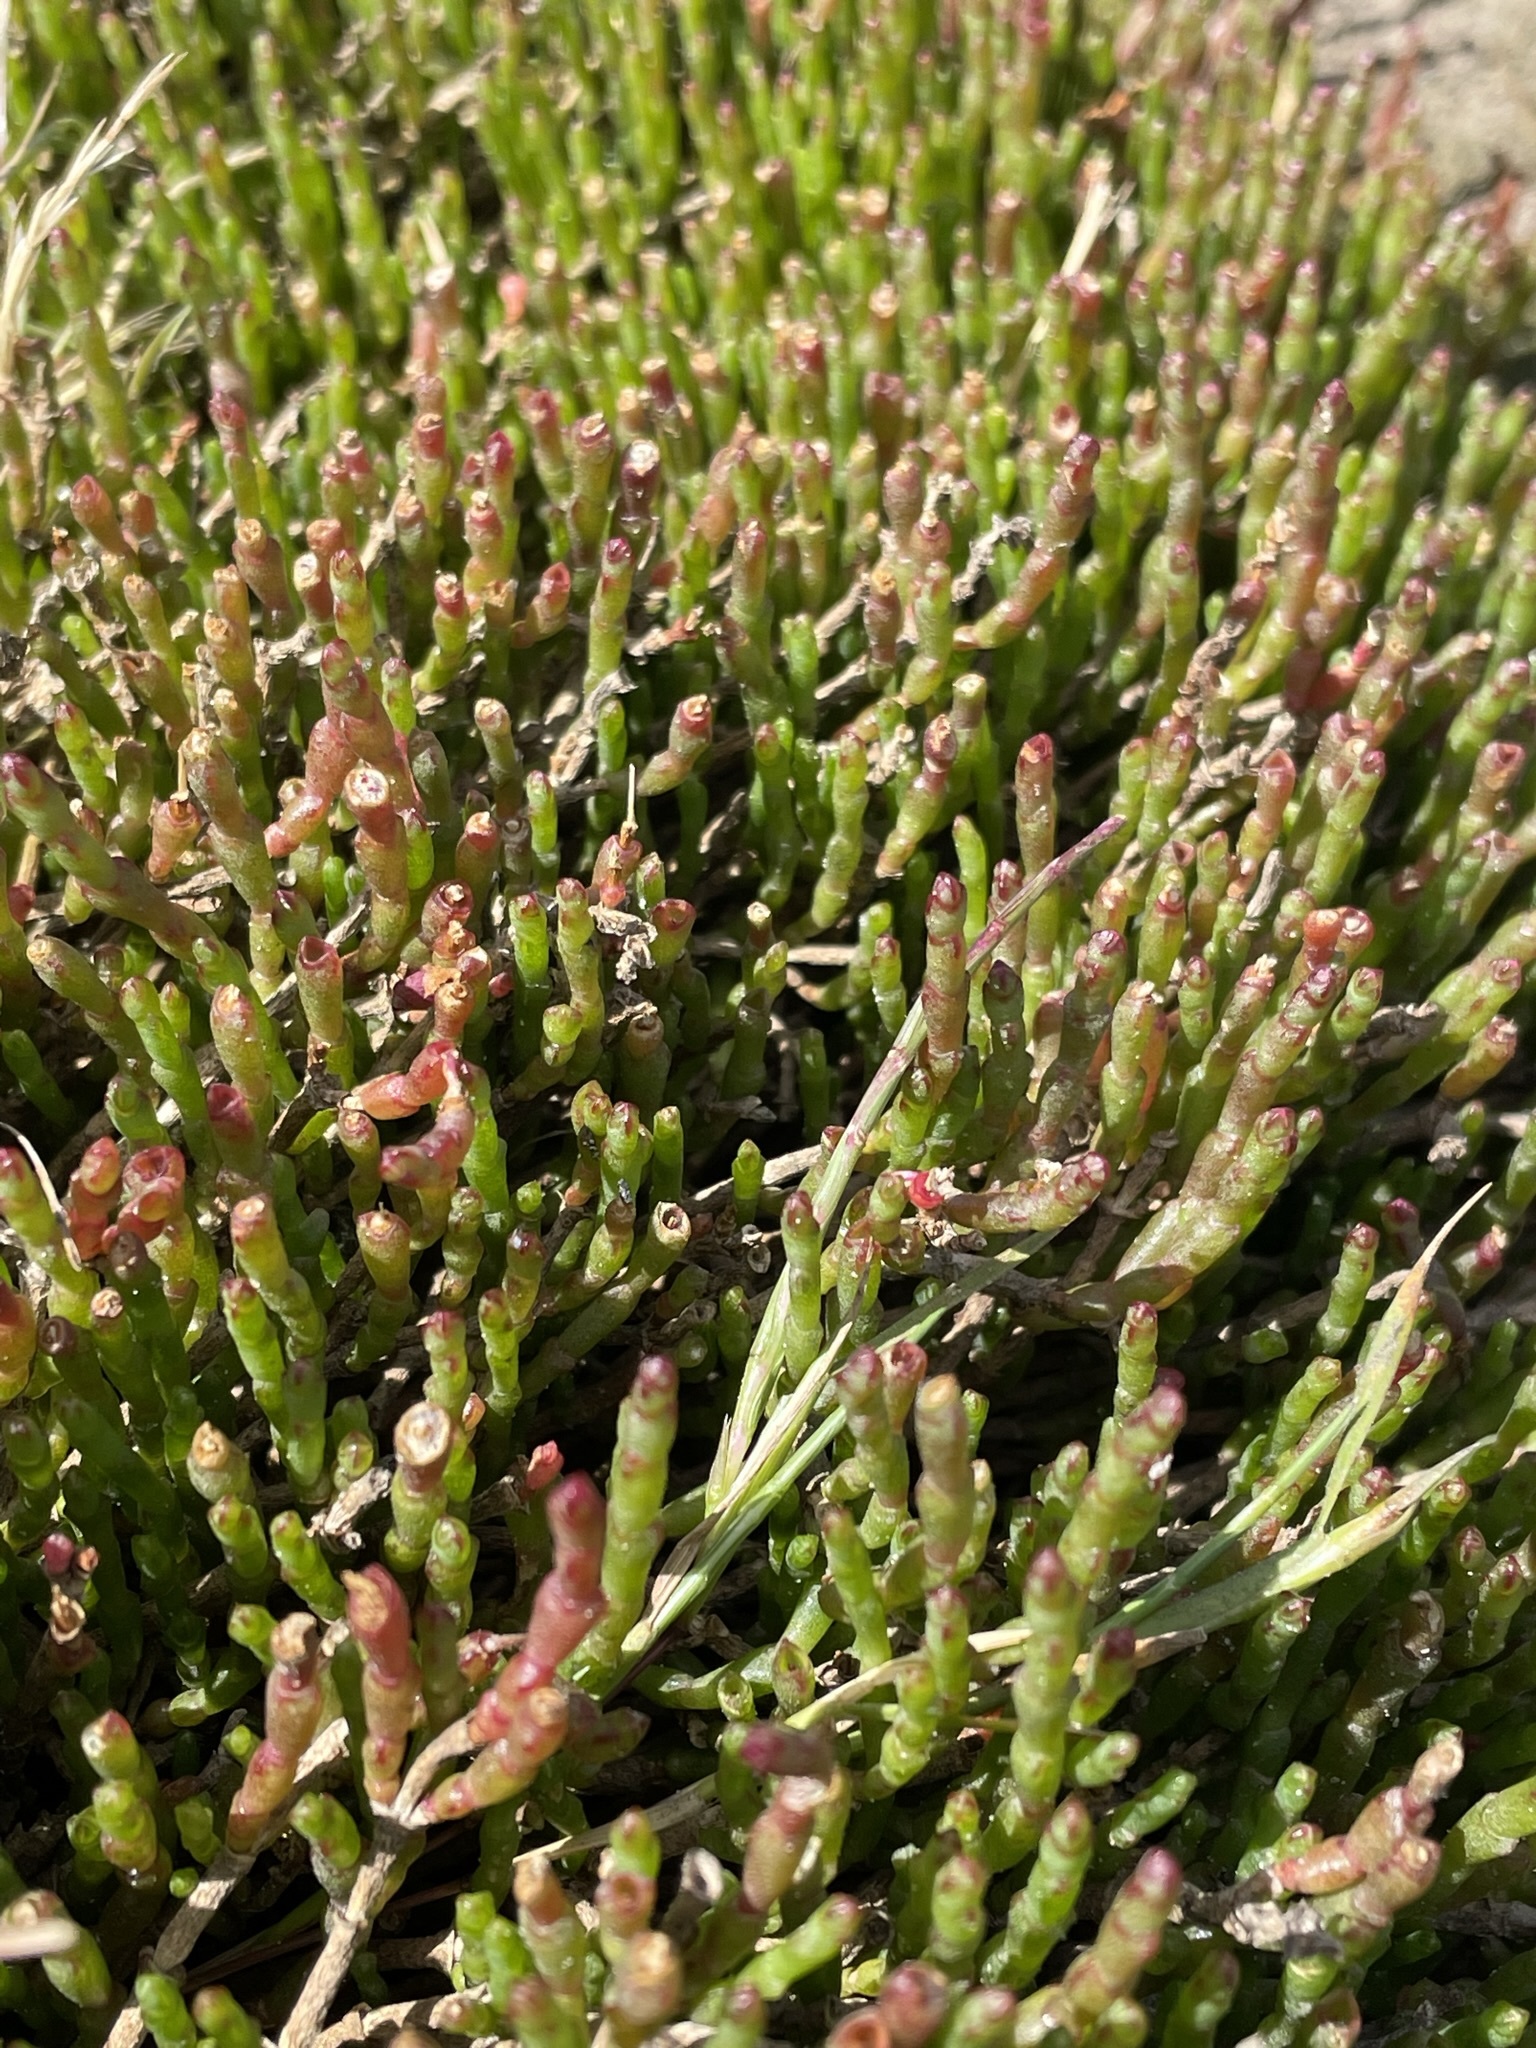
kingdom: Plantae
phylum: Tracheophyta
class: Magnoliopsida
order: Caryophyllales
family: Amaranthaceae
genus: Salicornia
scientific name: Salicornia quinqueflora
